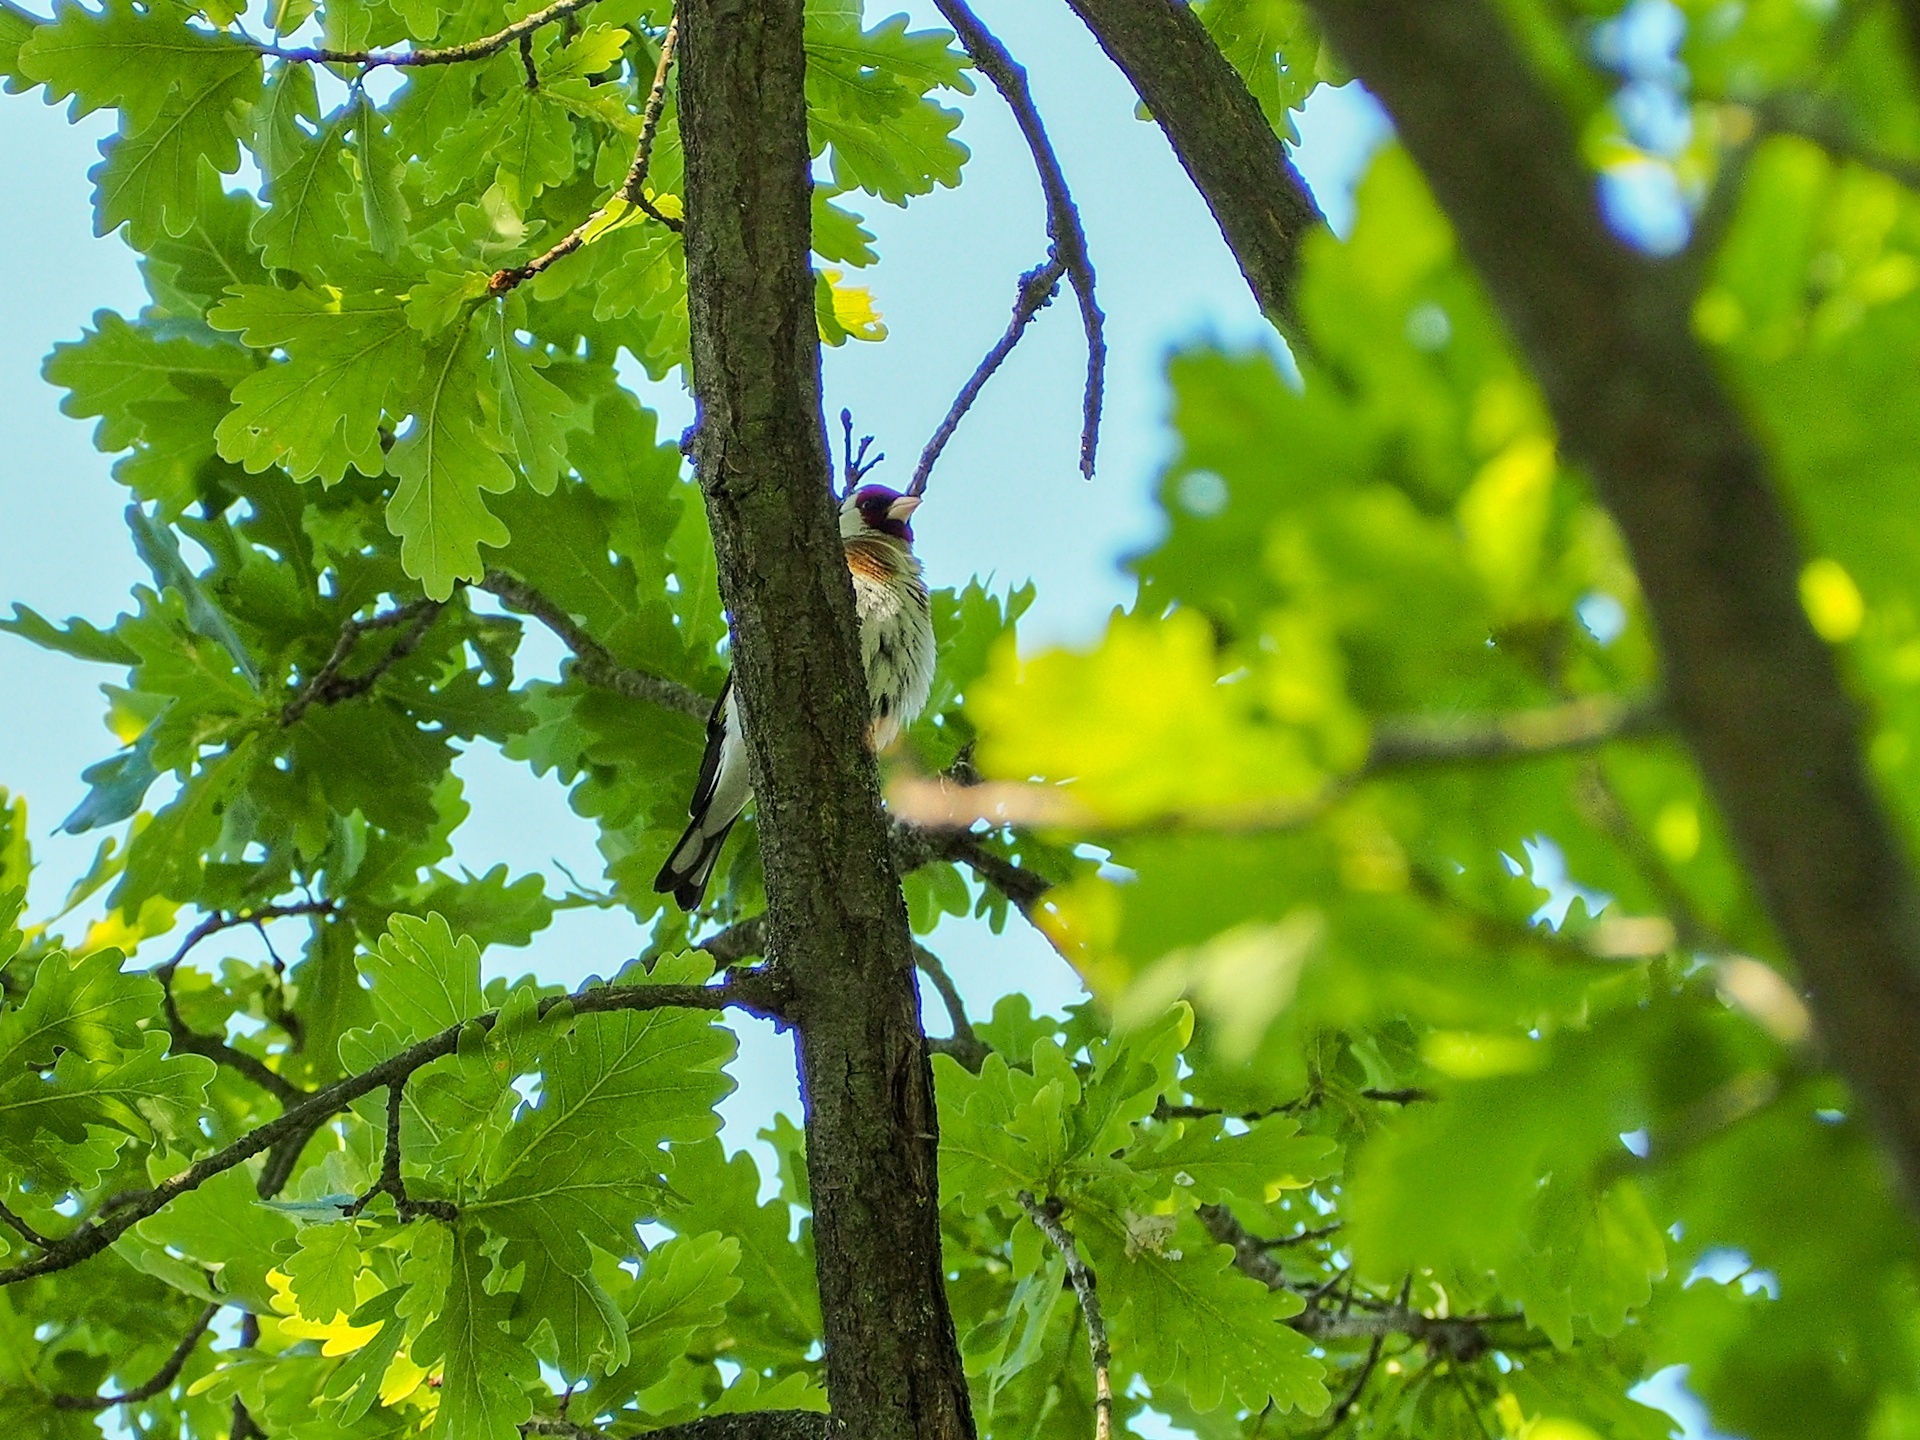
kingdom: Animalia
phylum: Chordata
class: Aves
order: Passeriformes
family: Fringillidae
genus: Carduelis
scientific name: Carduelis carduelis
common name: European goldfinch
